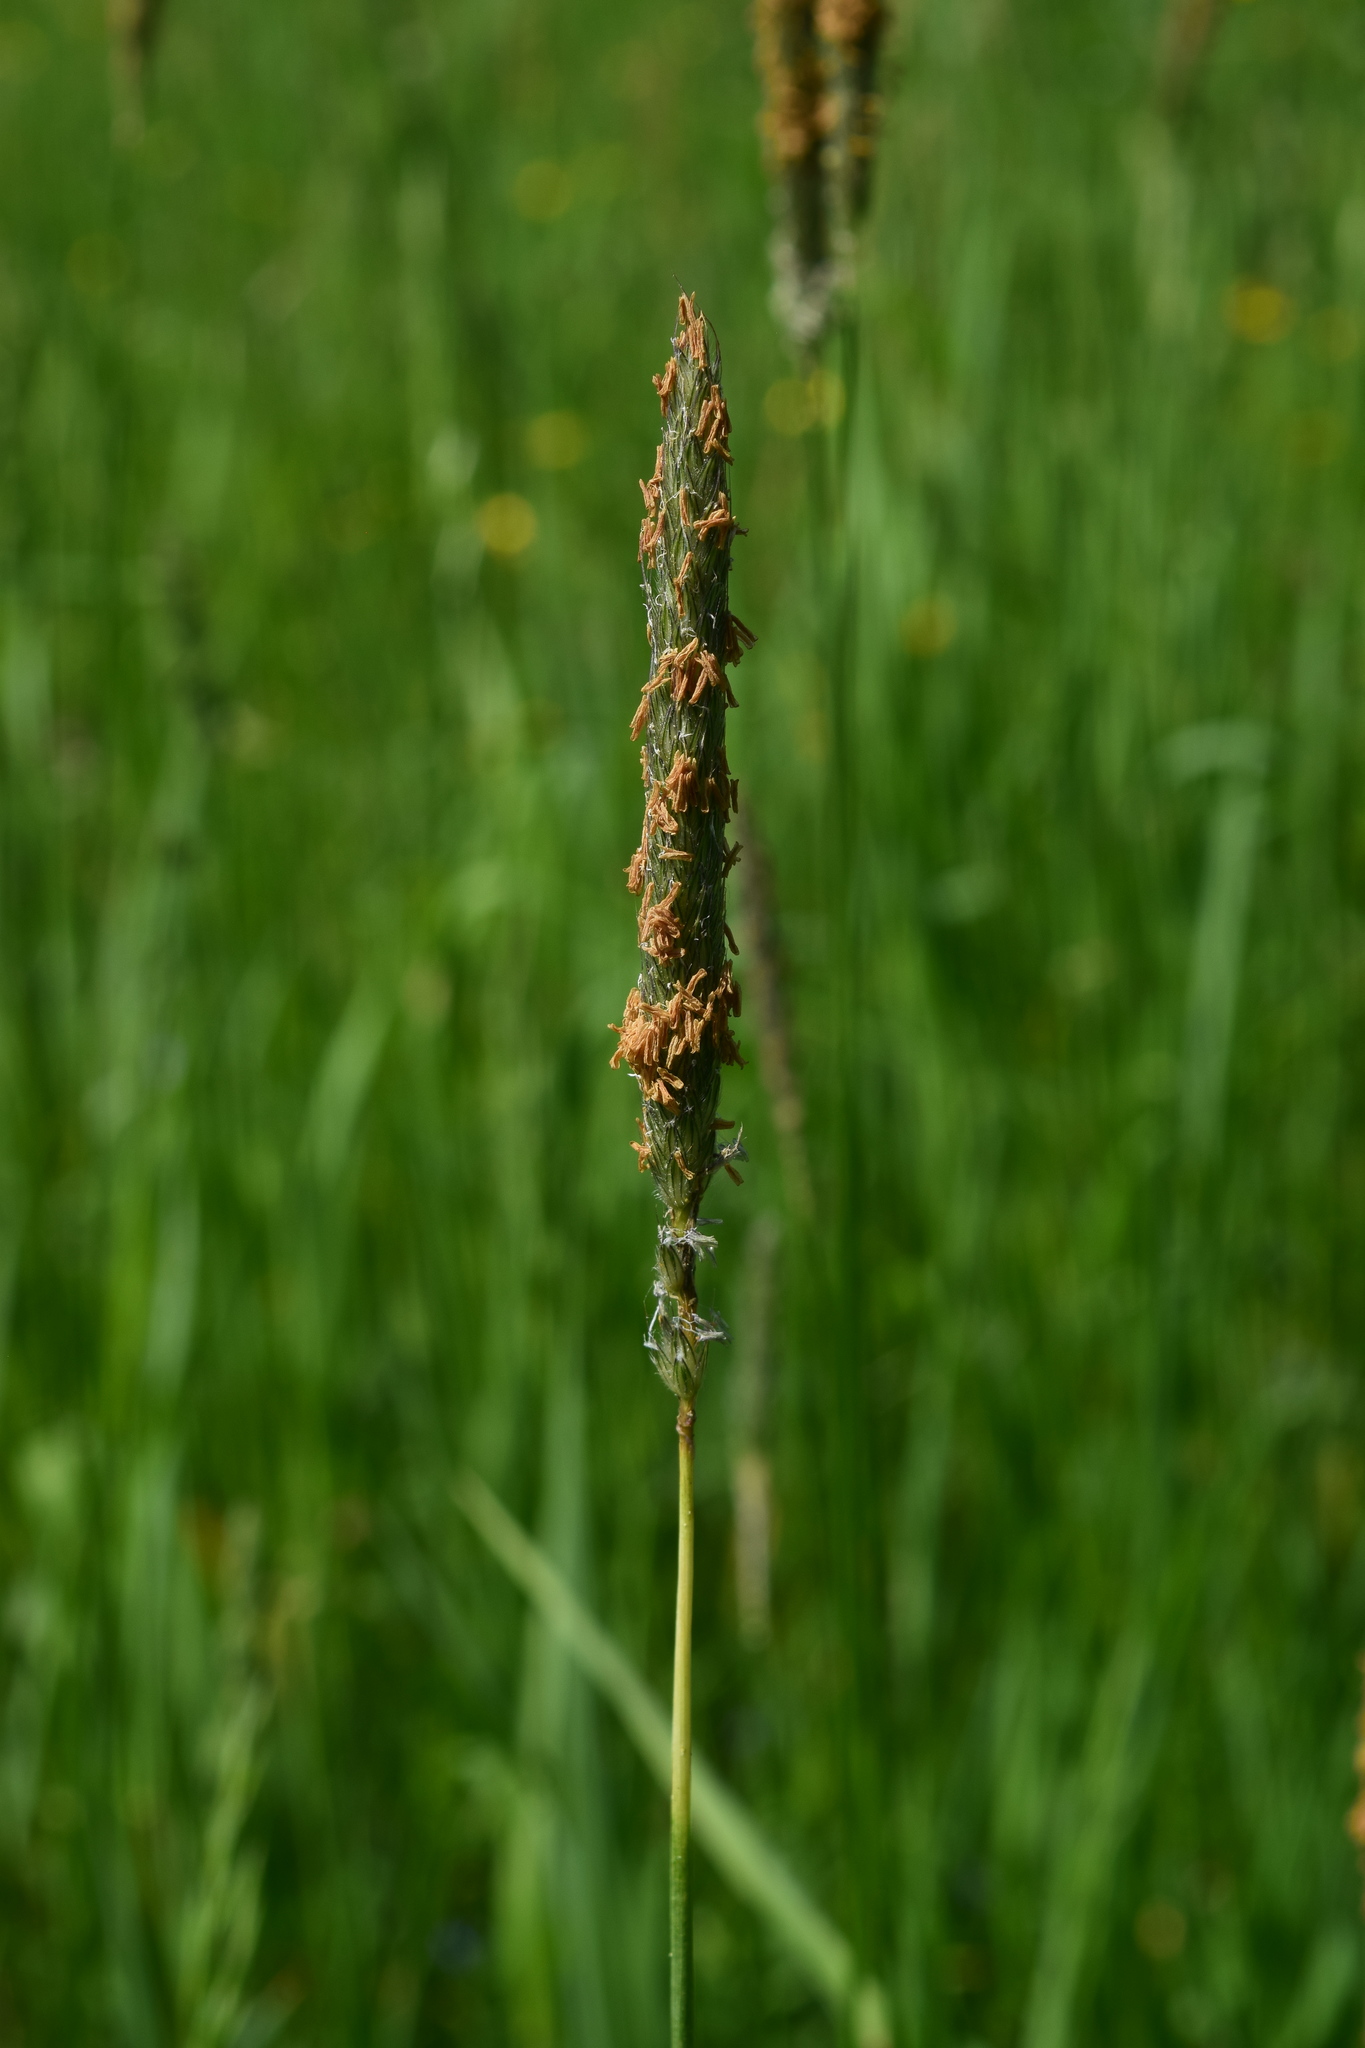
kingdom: Plantae
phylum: Tracheophyta
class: Liliopsida
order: Poales
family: Poaceae
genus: Alopecurus
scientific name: Alopecurus pratensis
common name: Meadow foxtail
